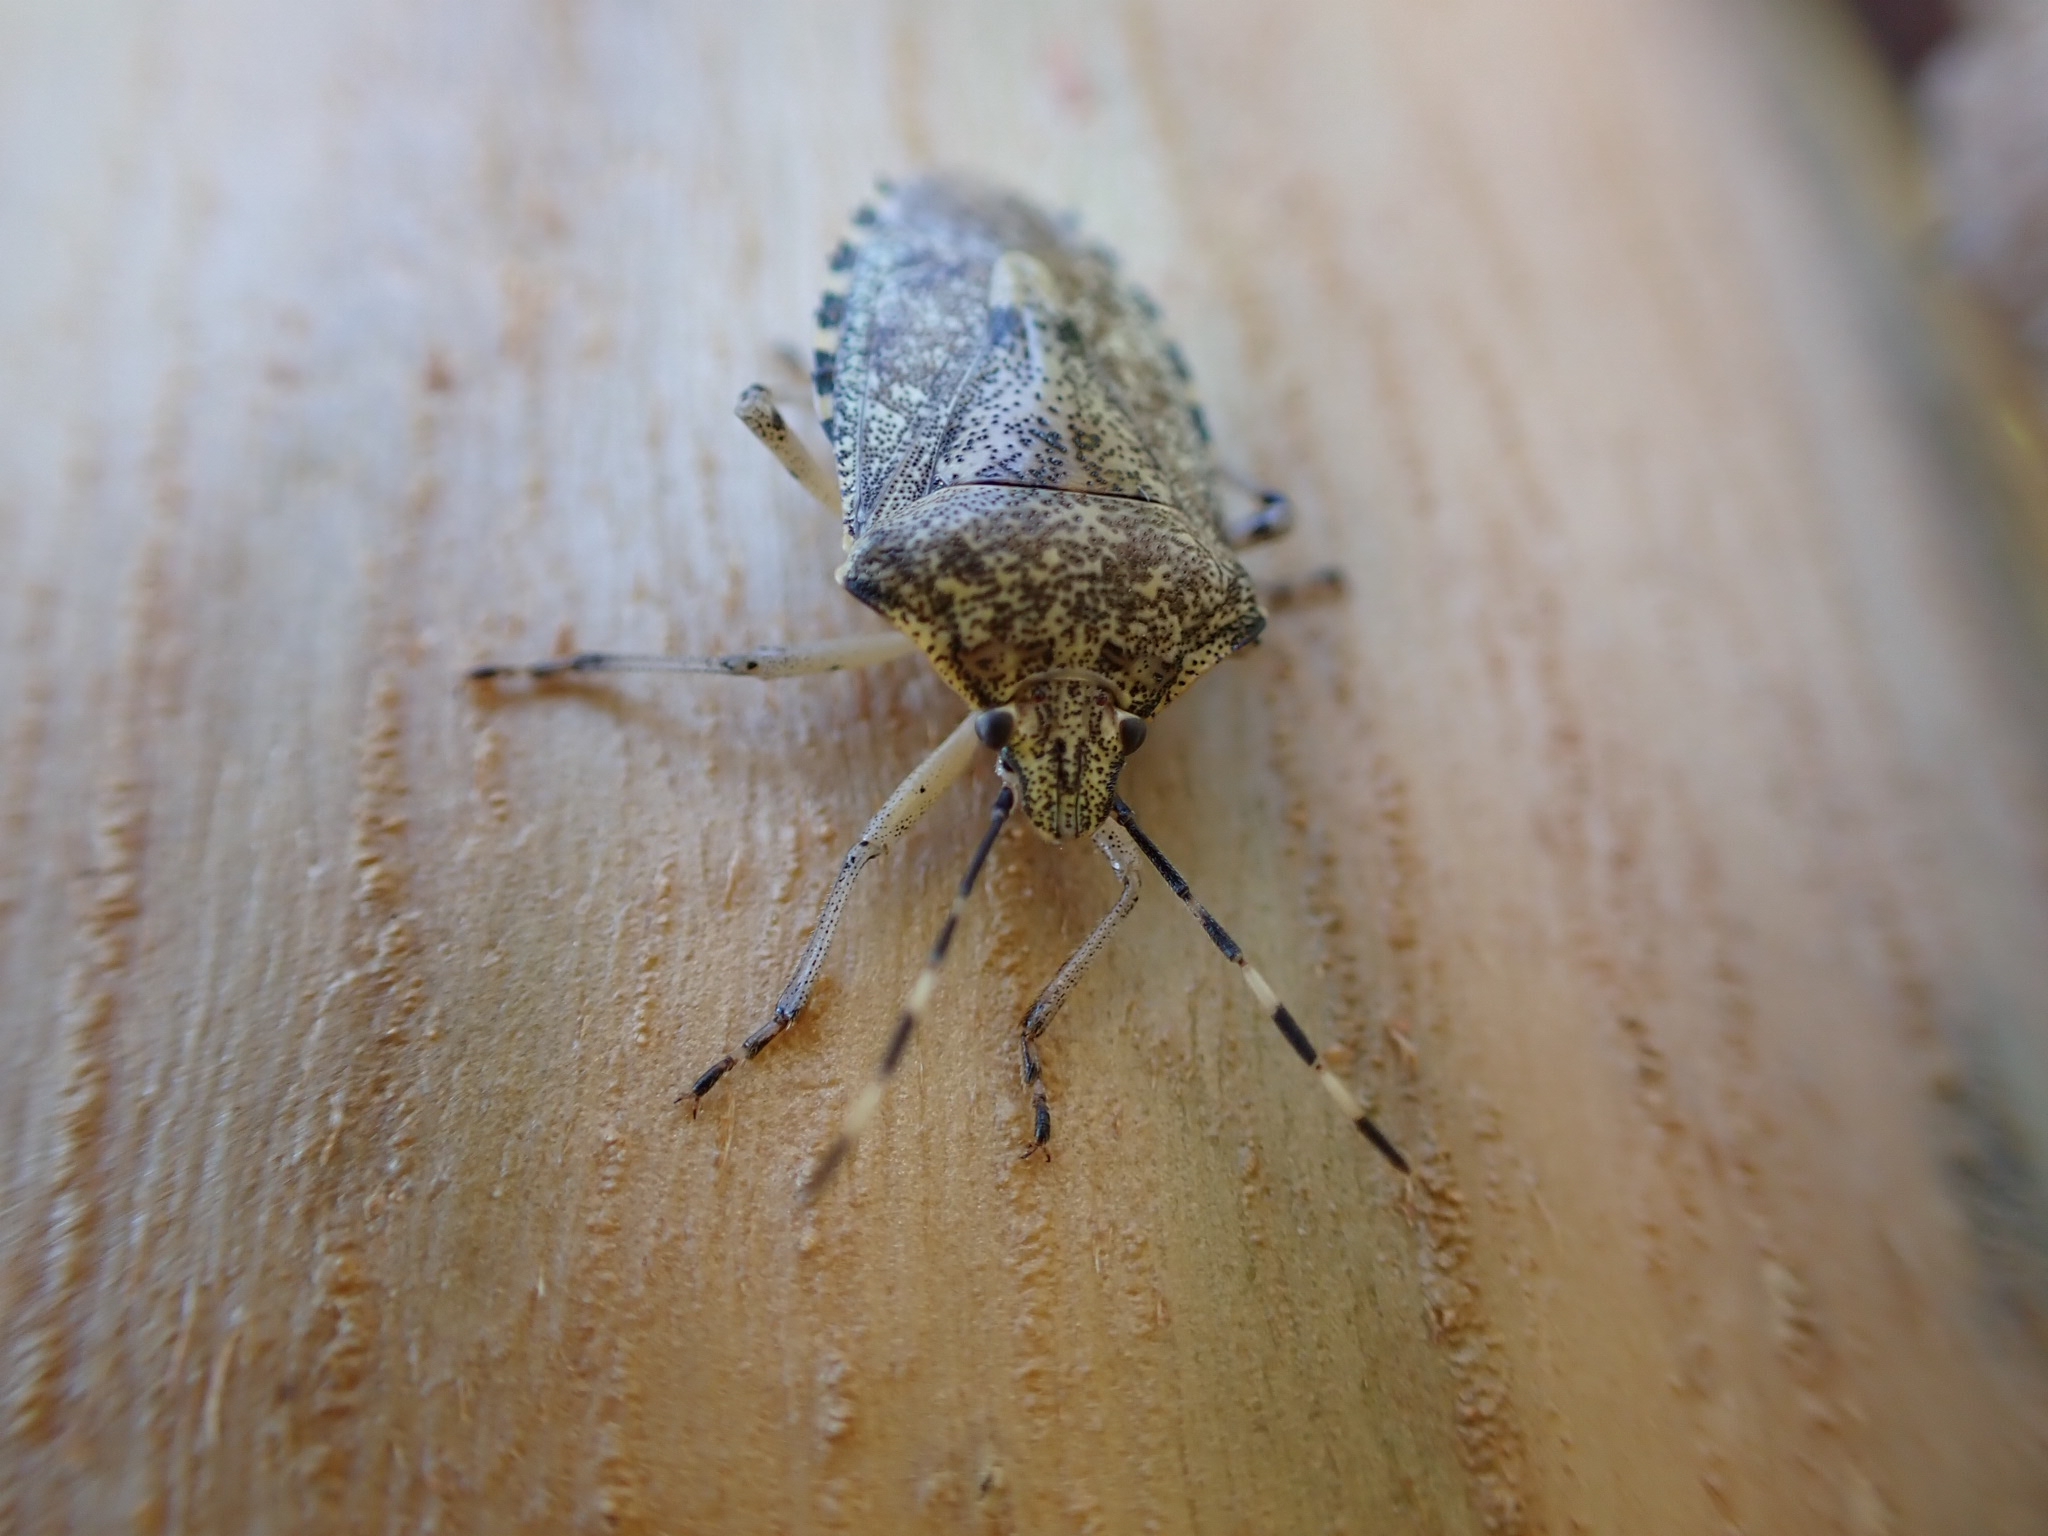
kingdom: Animalia
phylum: Arthropoda
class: Insecta
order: Hemiptera
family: Pentatomidae
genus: Rhaphigaster
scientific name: Rhaphigaster nebulosa
